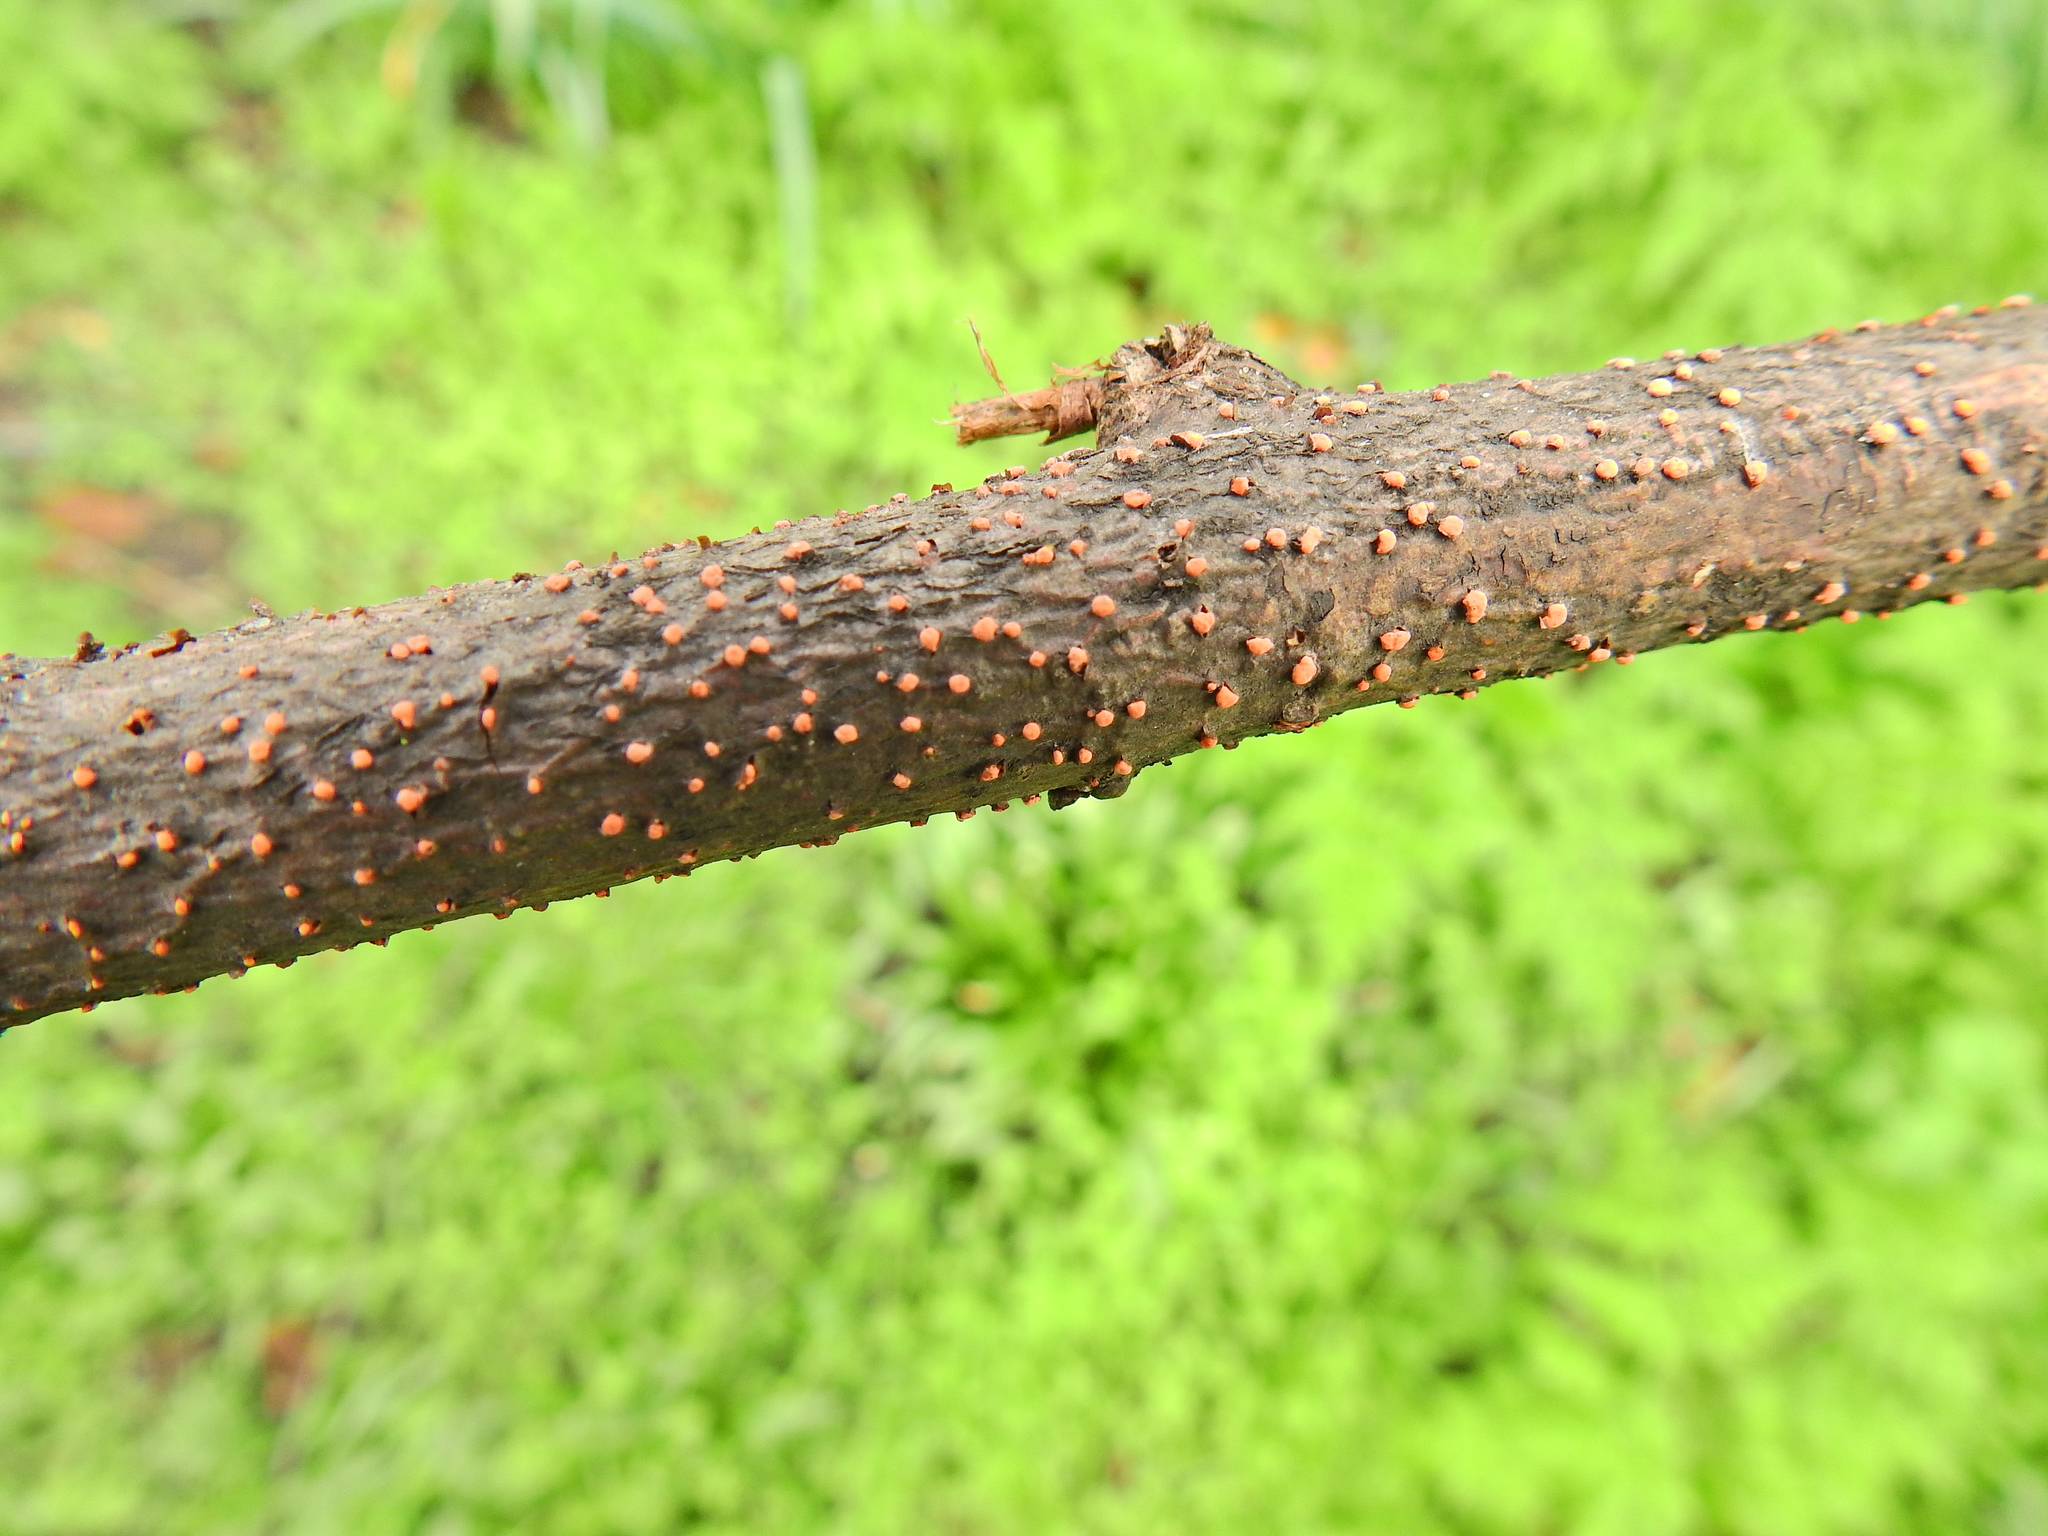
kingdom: Fungi
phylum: Ascomycota
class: Sordariomycetes
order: Hypocreales
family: Nectriaceae
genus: Nectria
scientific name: Nectria cinnabarina
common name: Coral spot
